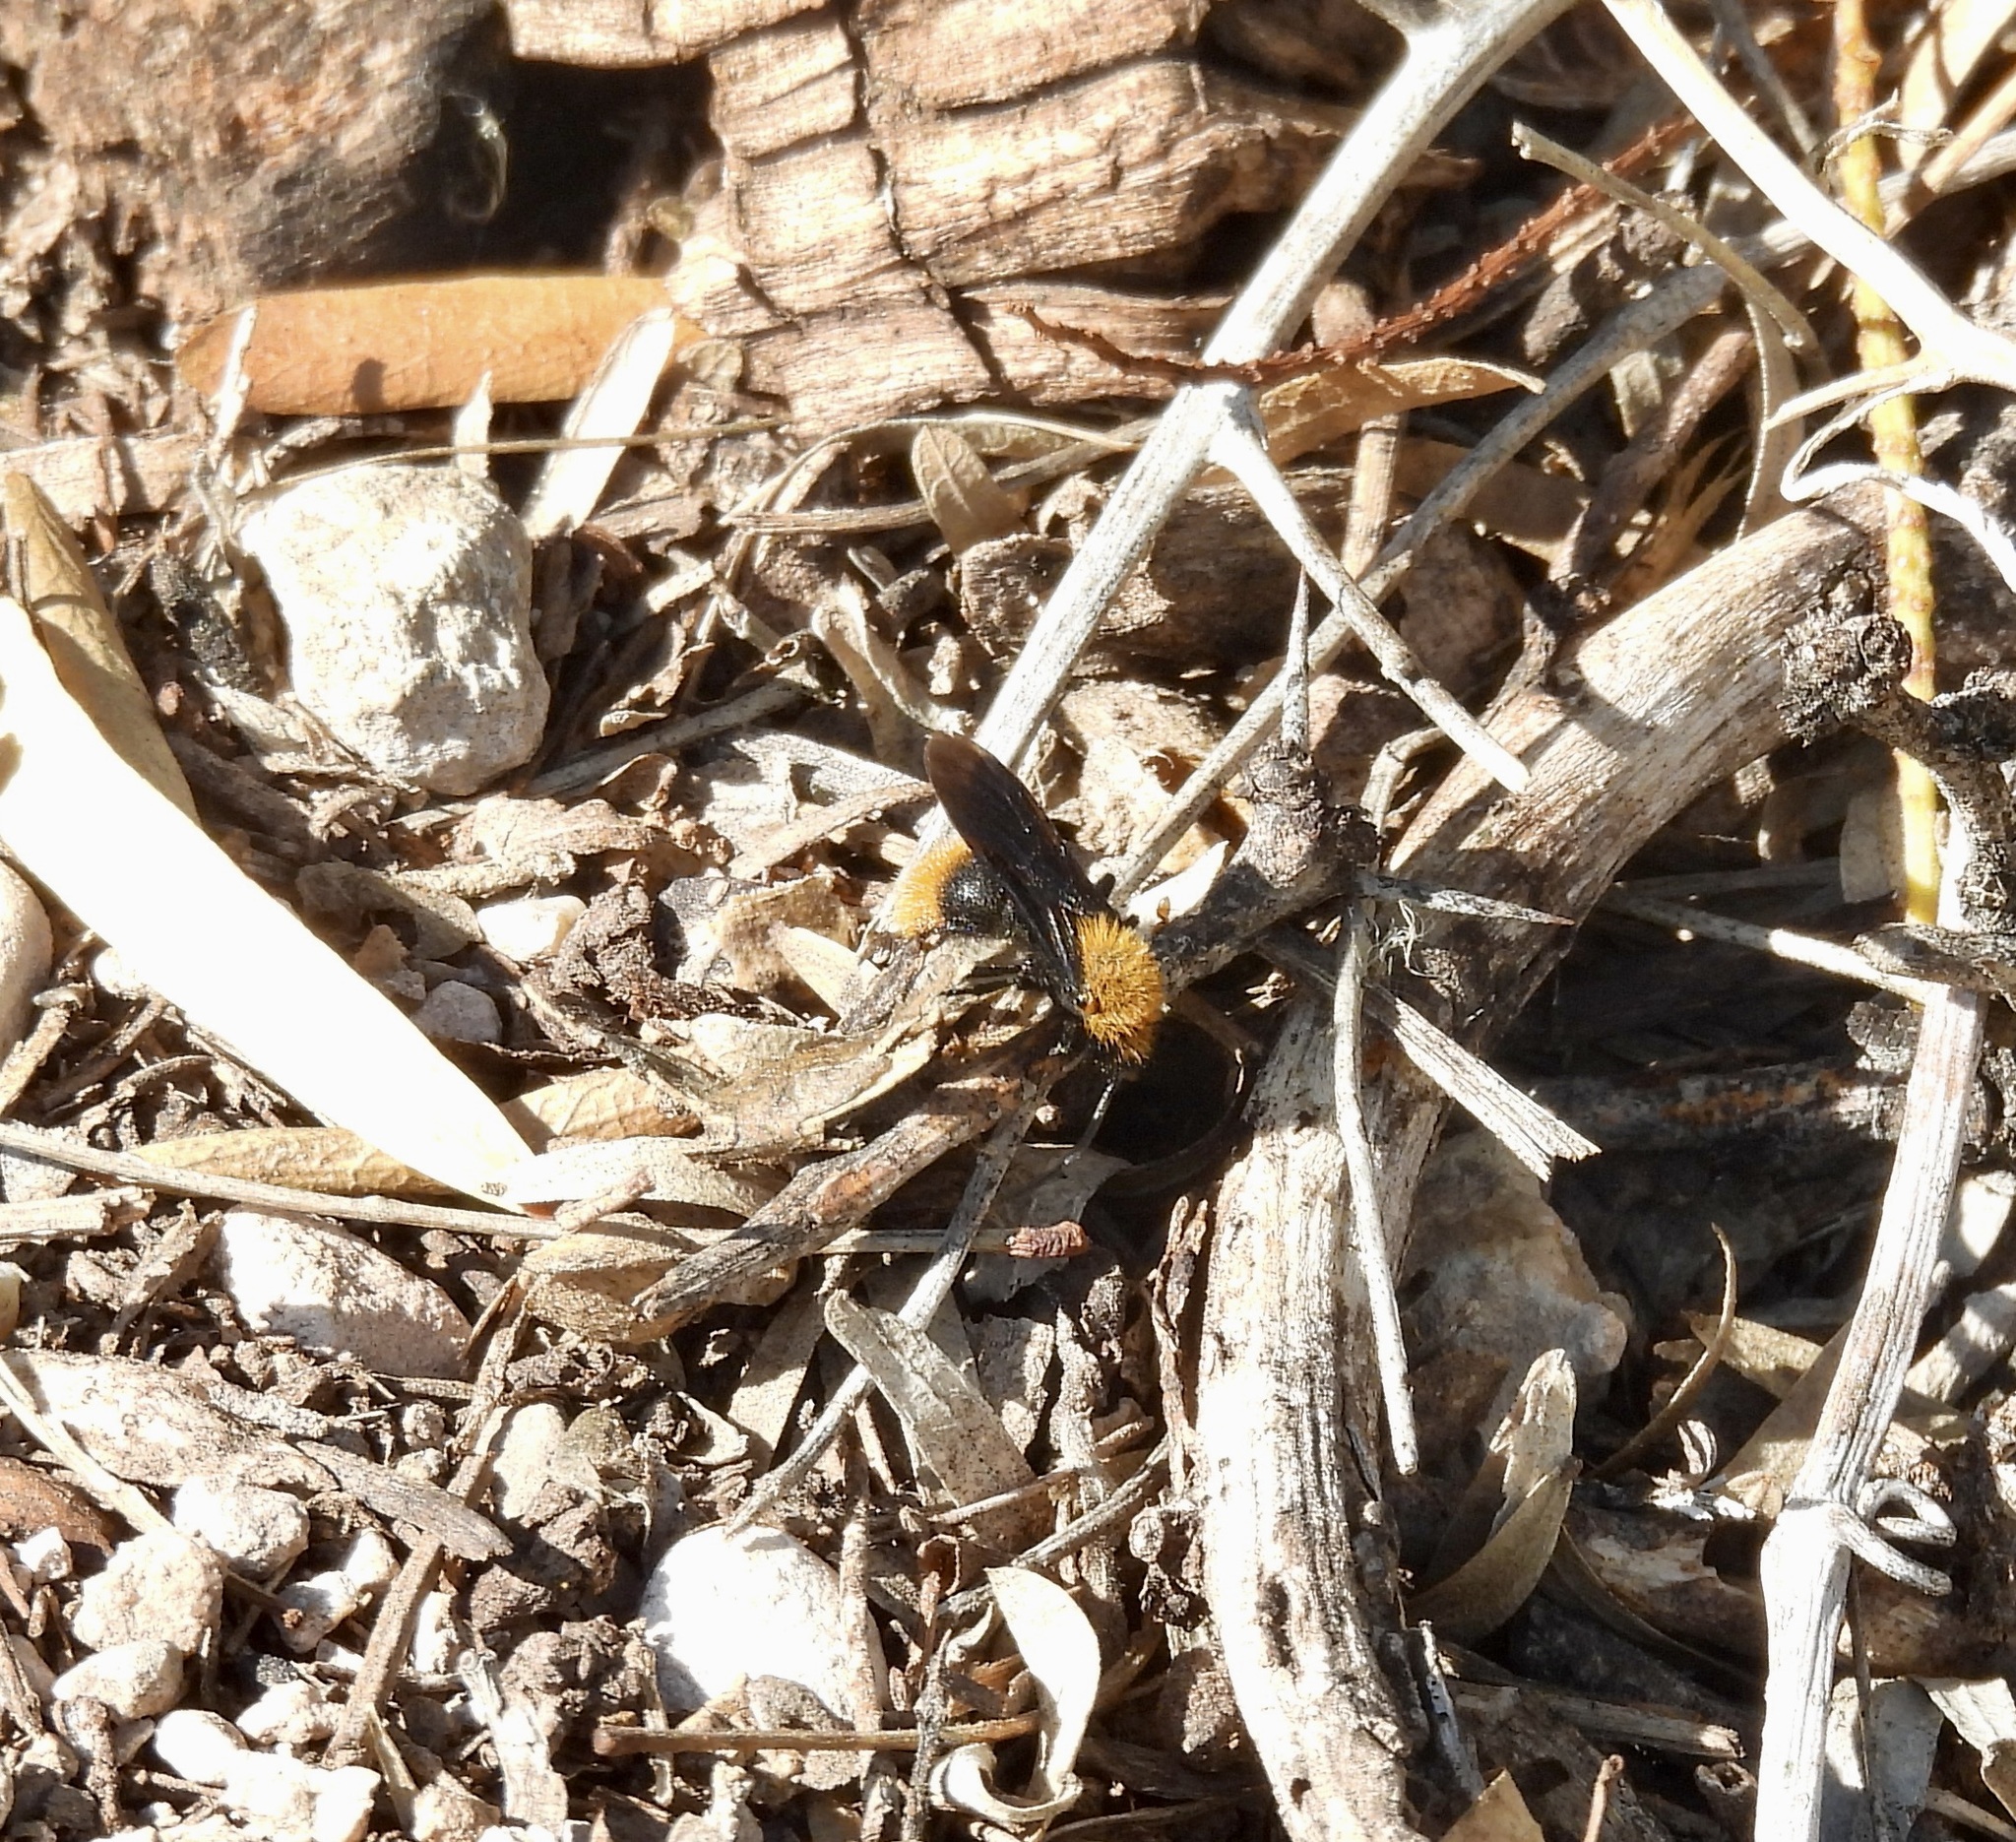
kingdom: Animalia
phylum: Arthropoda
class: Insecta
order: Hymenoptera
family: Mutillidae
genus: Dasymutilla
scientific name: Dasymutilla vestita
